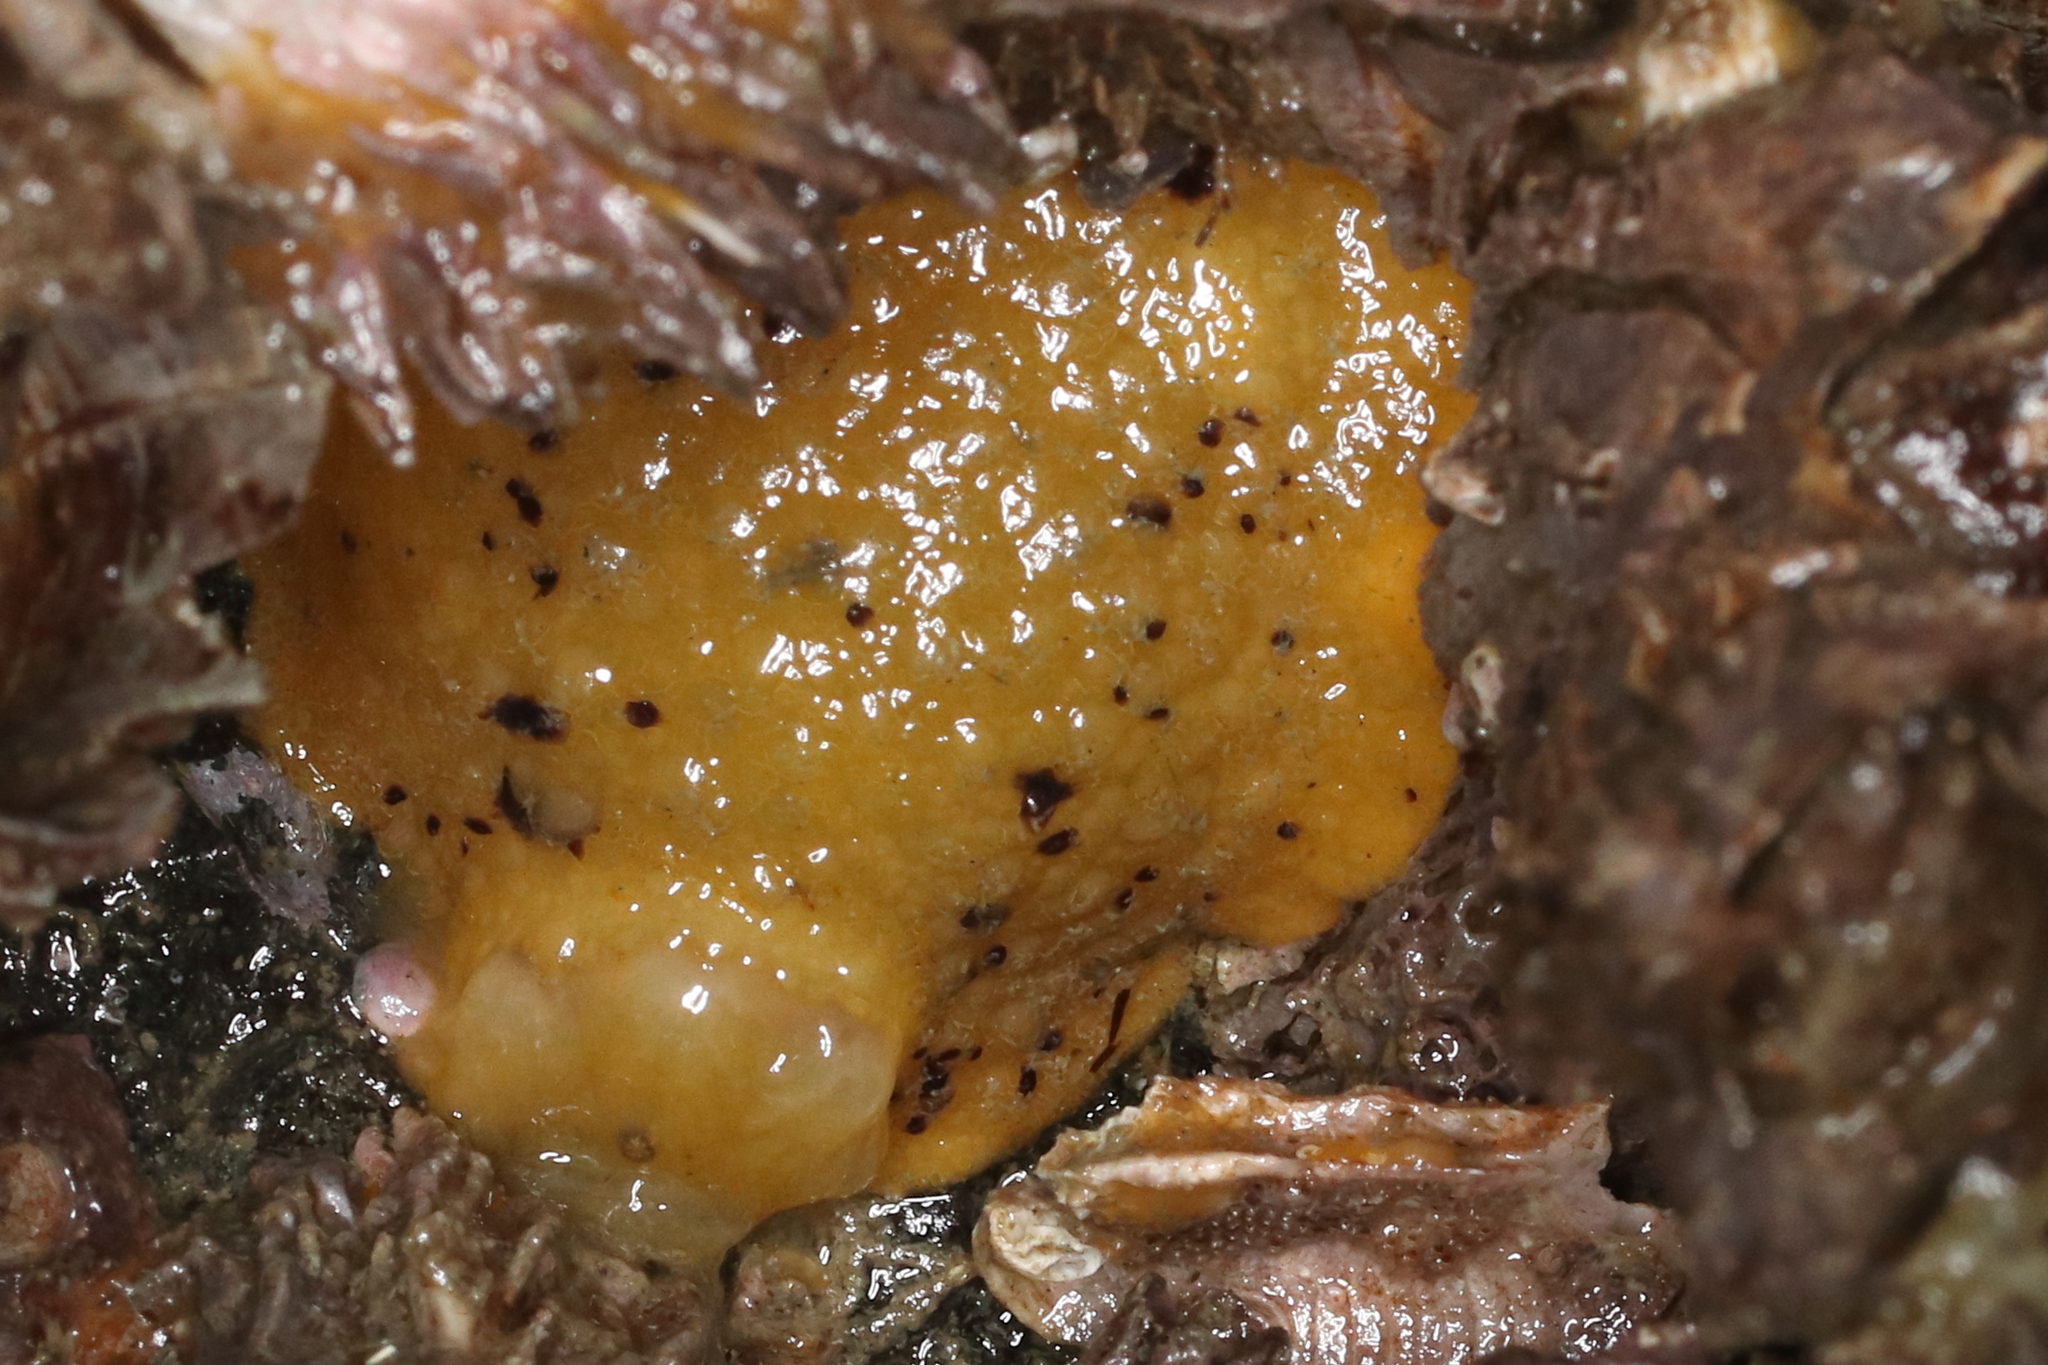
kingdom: Animalia
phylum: Mollusca
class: Gastropoda
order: Nudibranchia
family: Dorididae
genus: Doris
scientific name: Doris montereyensis
